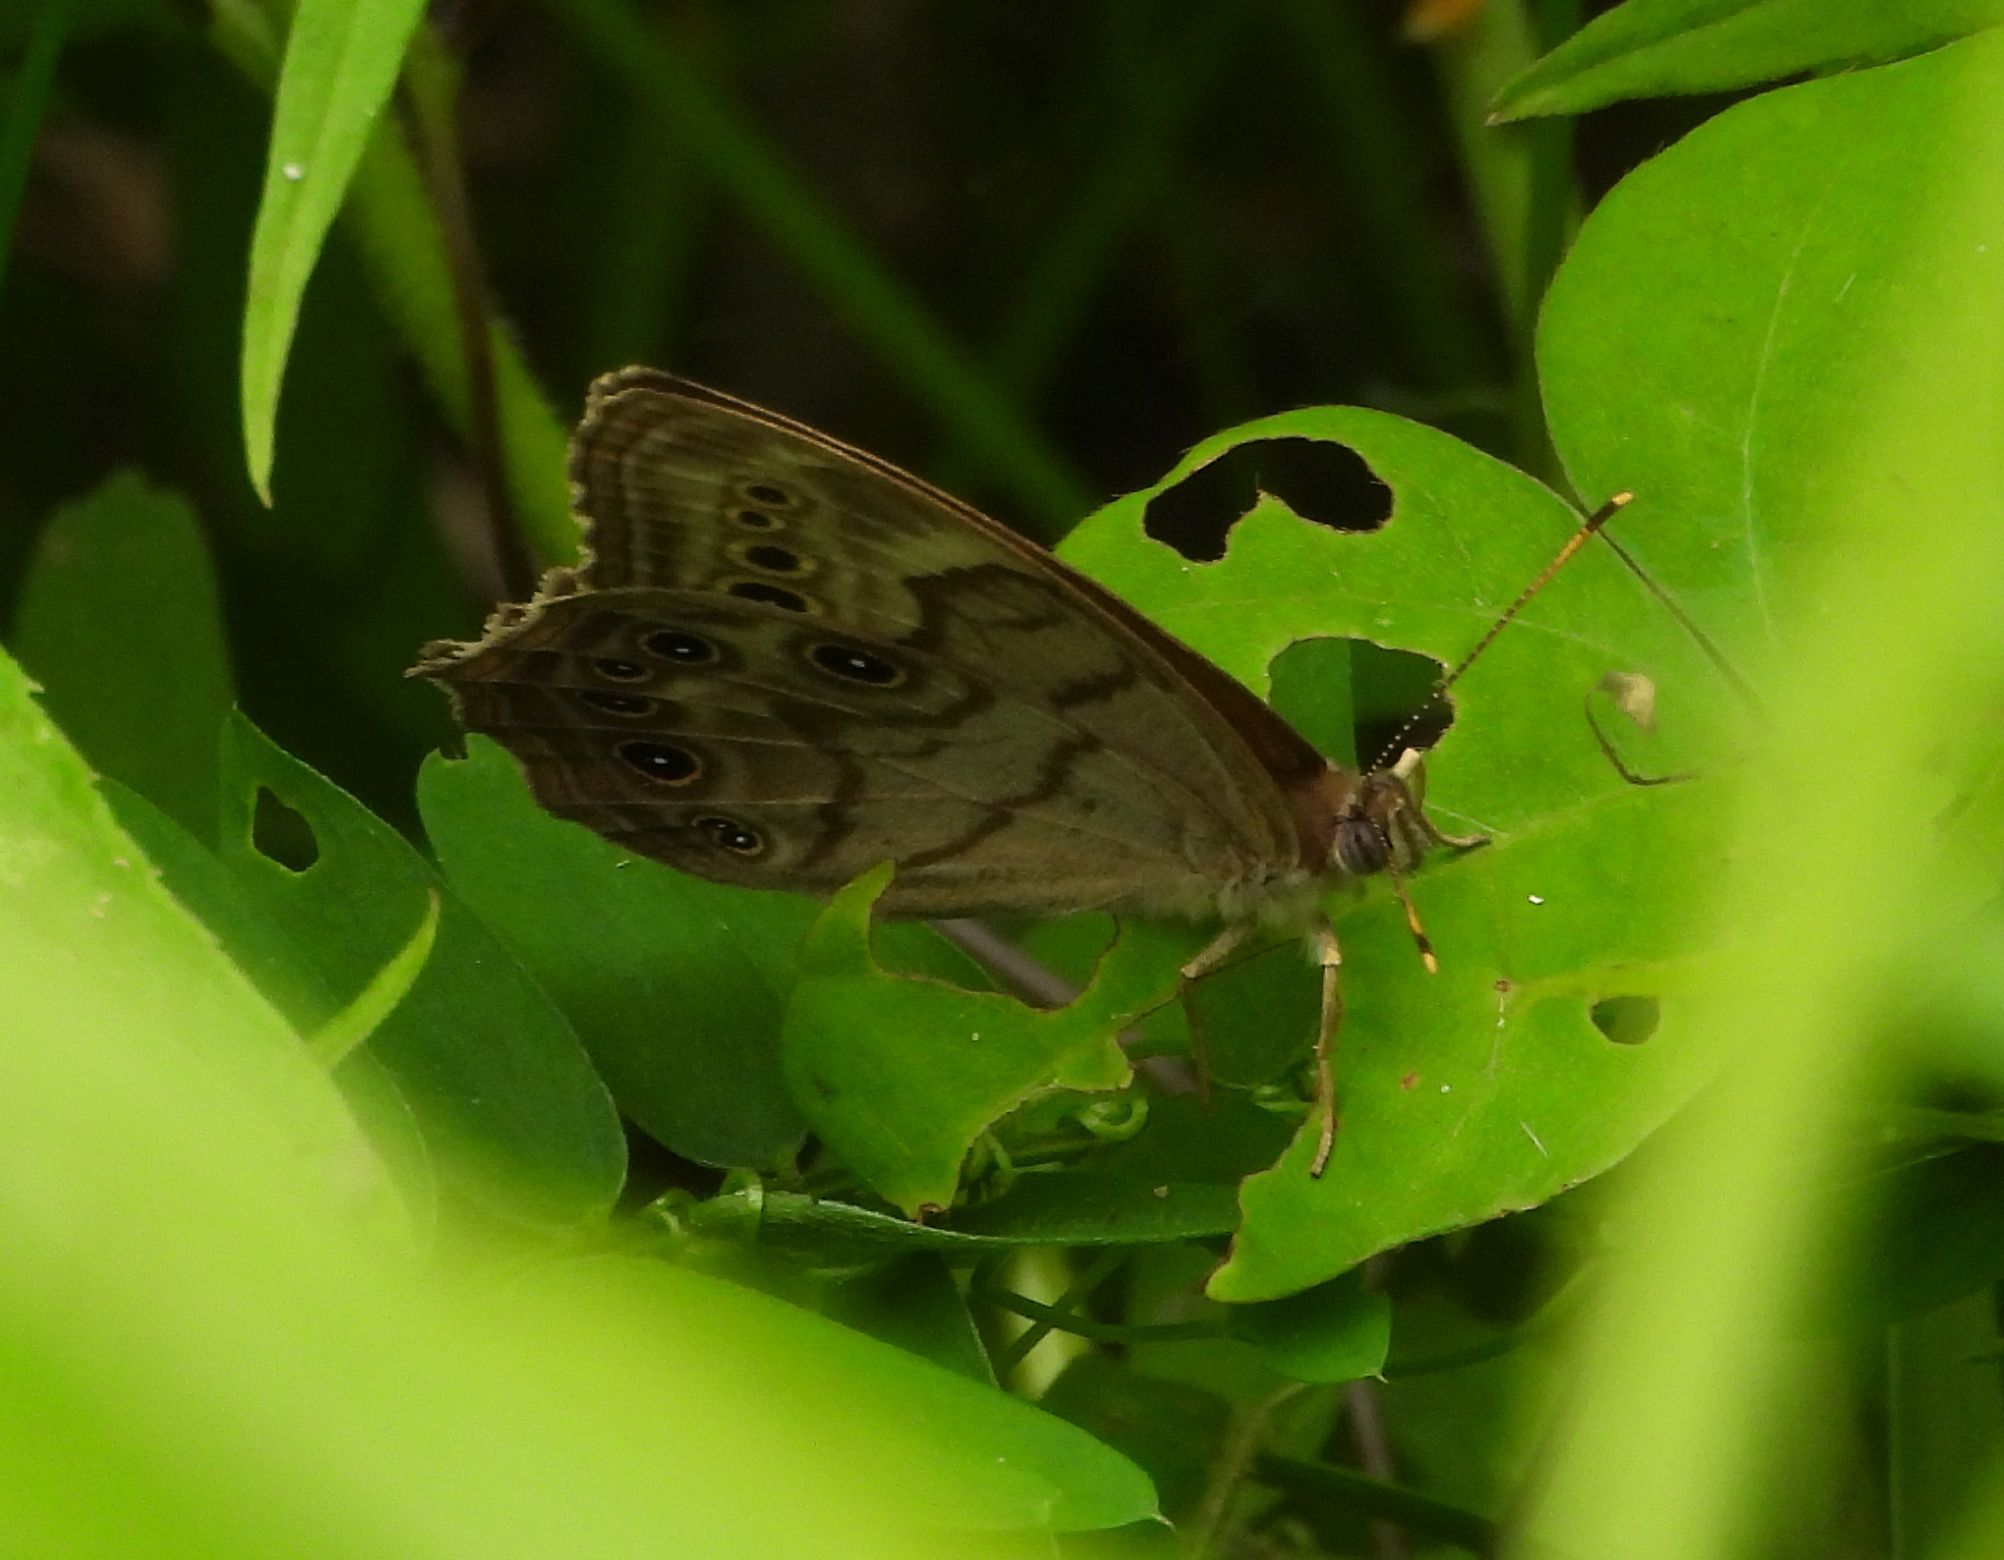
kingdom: Animalia
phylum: Arthropoda
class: Insecta
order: Lepidoptera
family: Nymphalidae
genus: Lethe
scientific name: Lethe anthedon
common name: Northern pearly-eye
